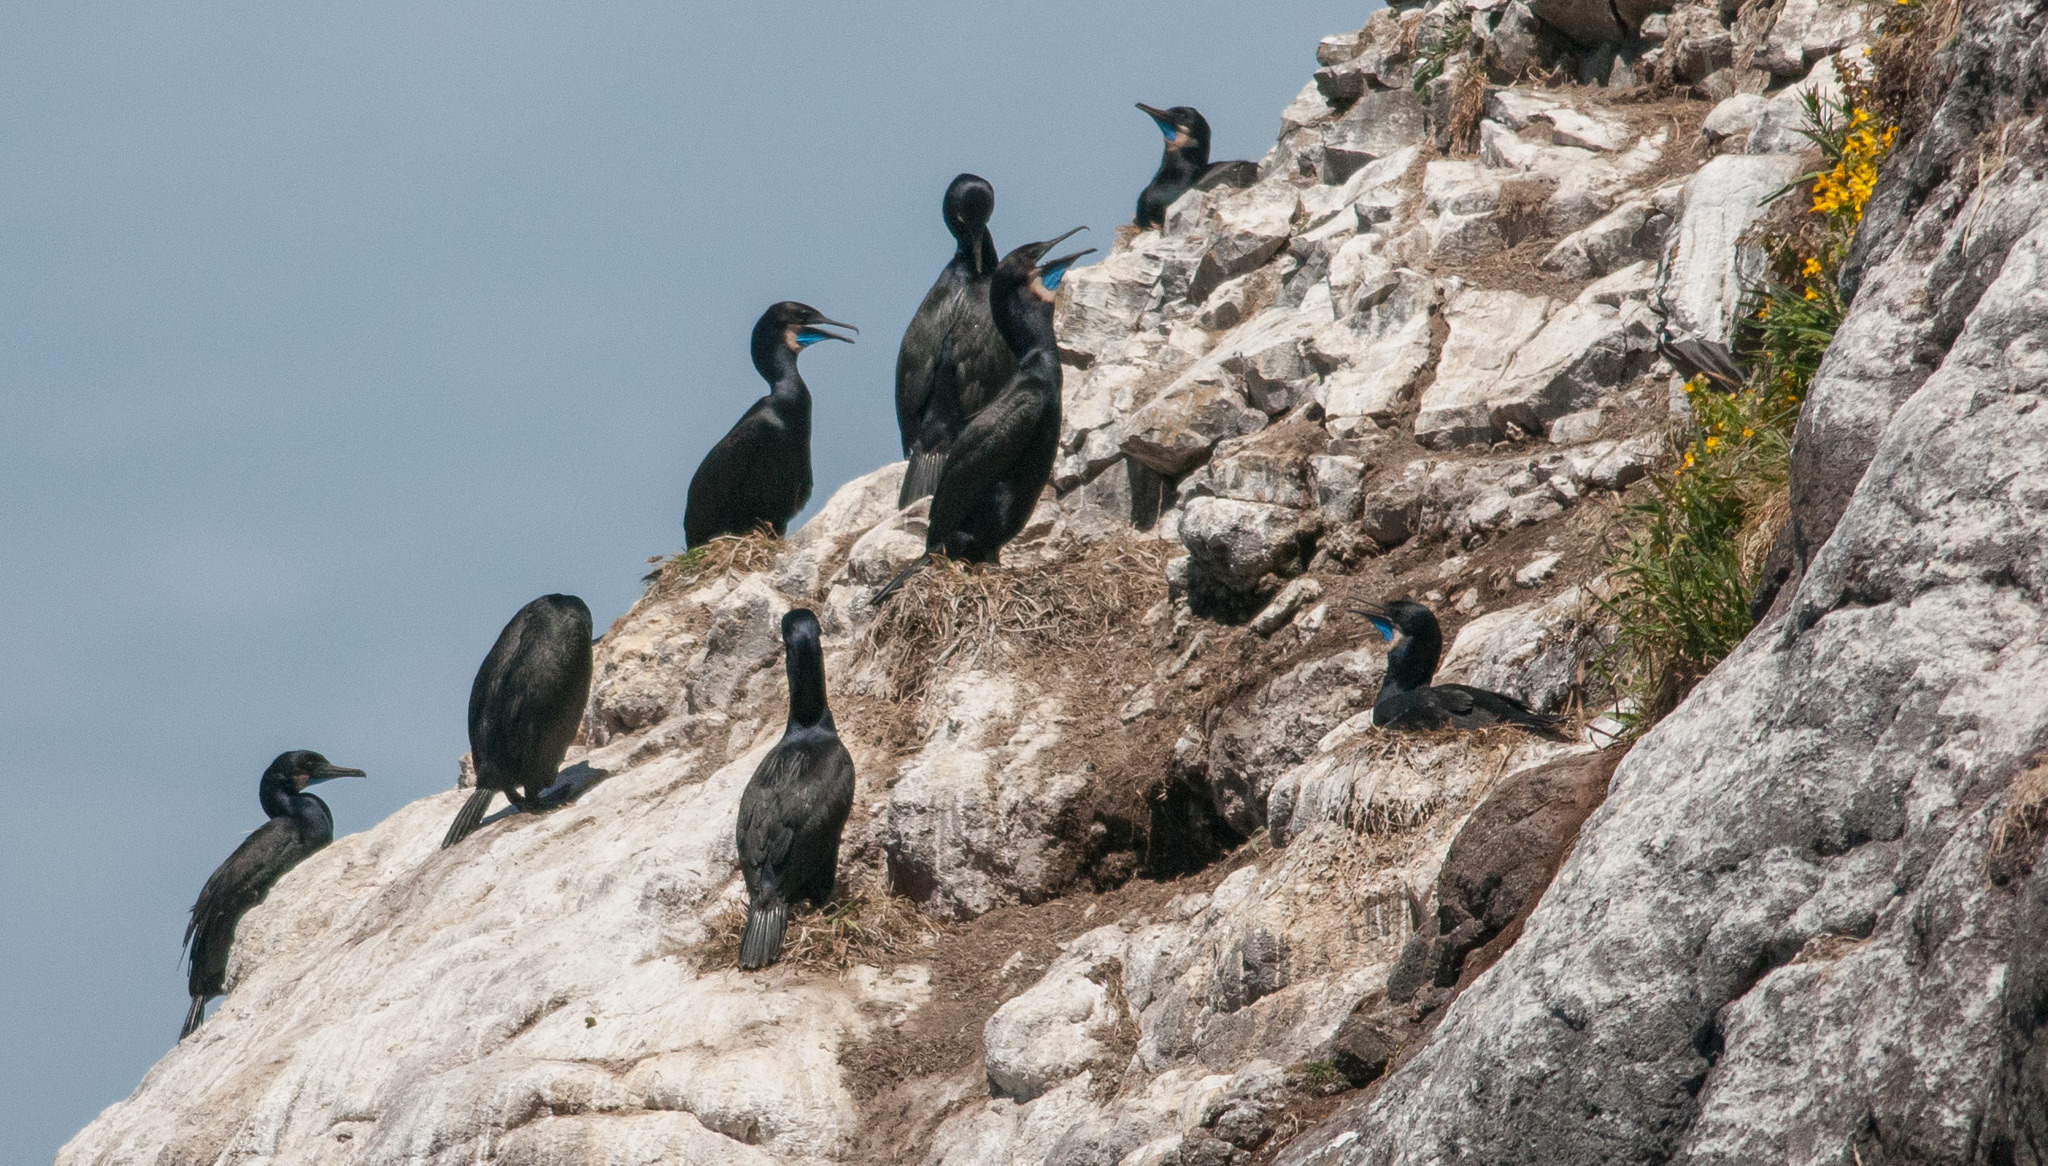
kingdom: Animalia
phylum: Chordata
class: Aves
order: Suliformes
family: Phalacrocoracidae
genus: Urile
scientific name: Urile penicillatus
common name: Brandt's cormorant
